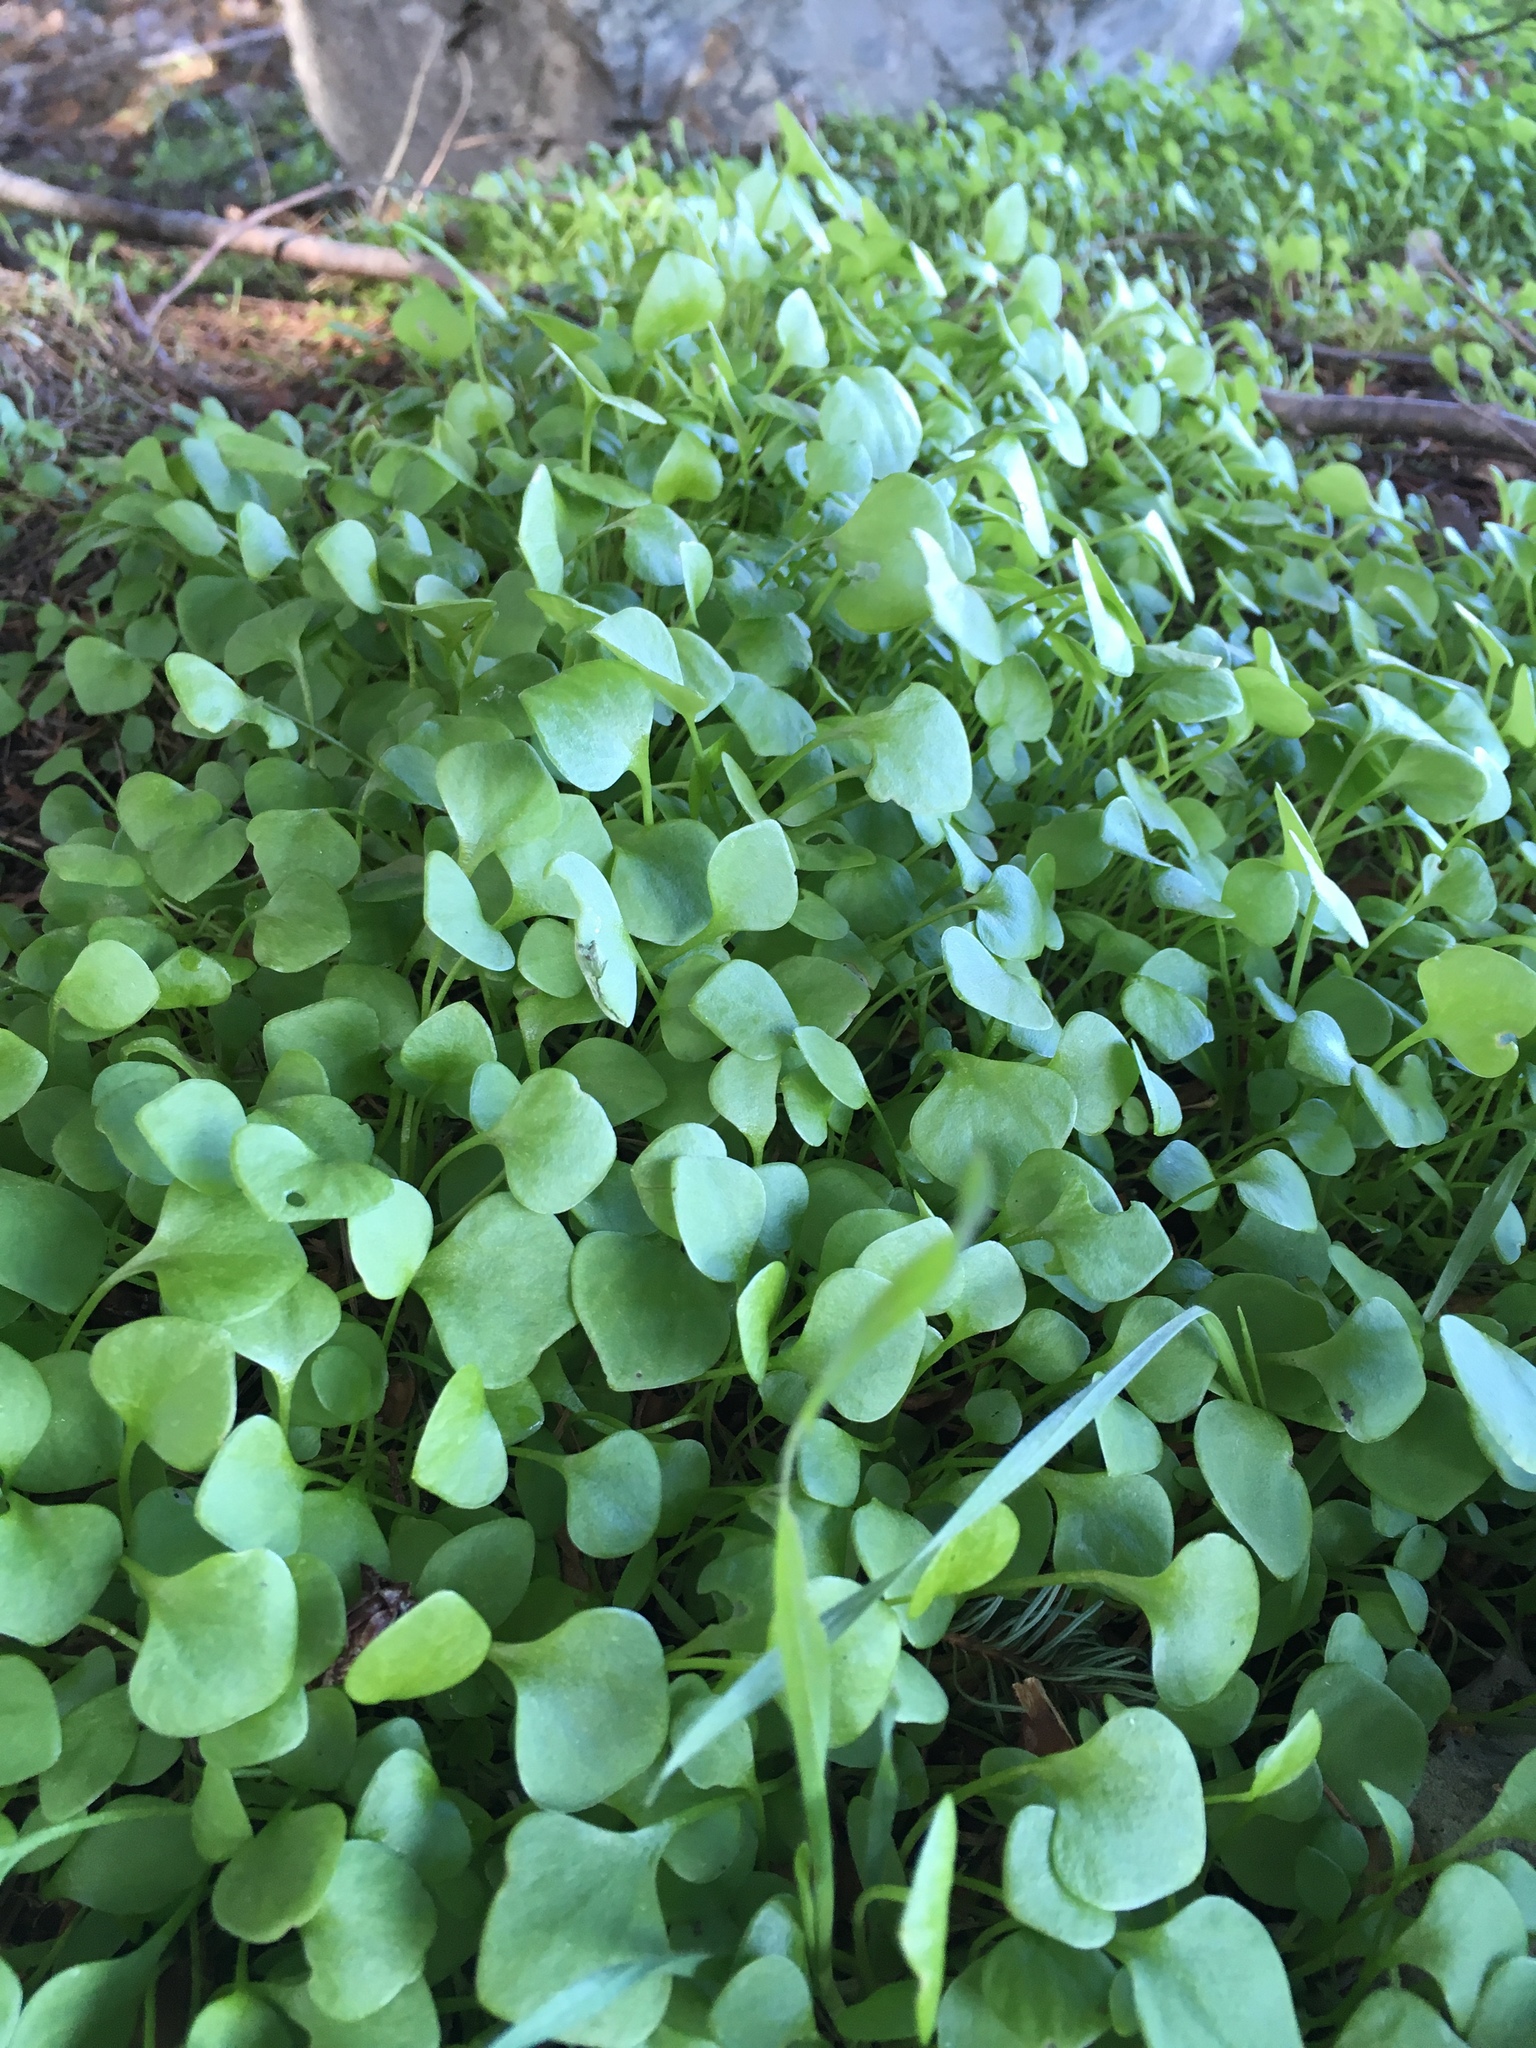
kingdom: Plantae
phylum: Tracheophyta
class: Magnoliopsida
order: Caryophyllales
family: Montiaceae
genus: Claytonia
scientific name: Claytonia perfoliata
